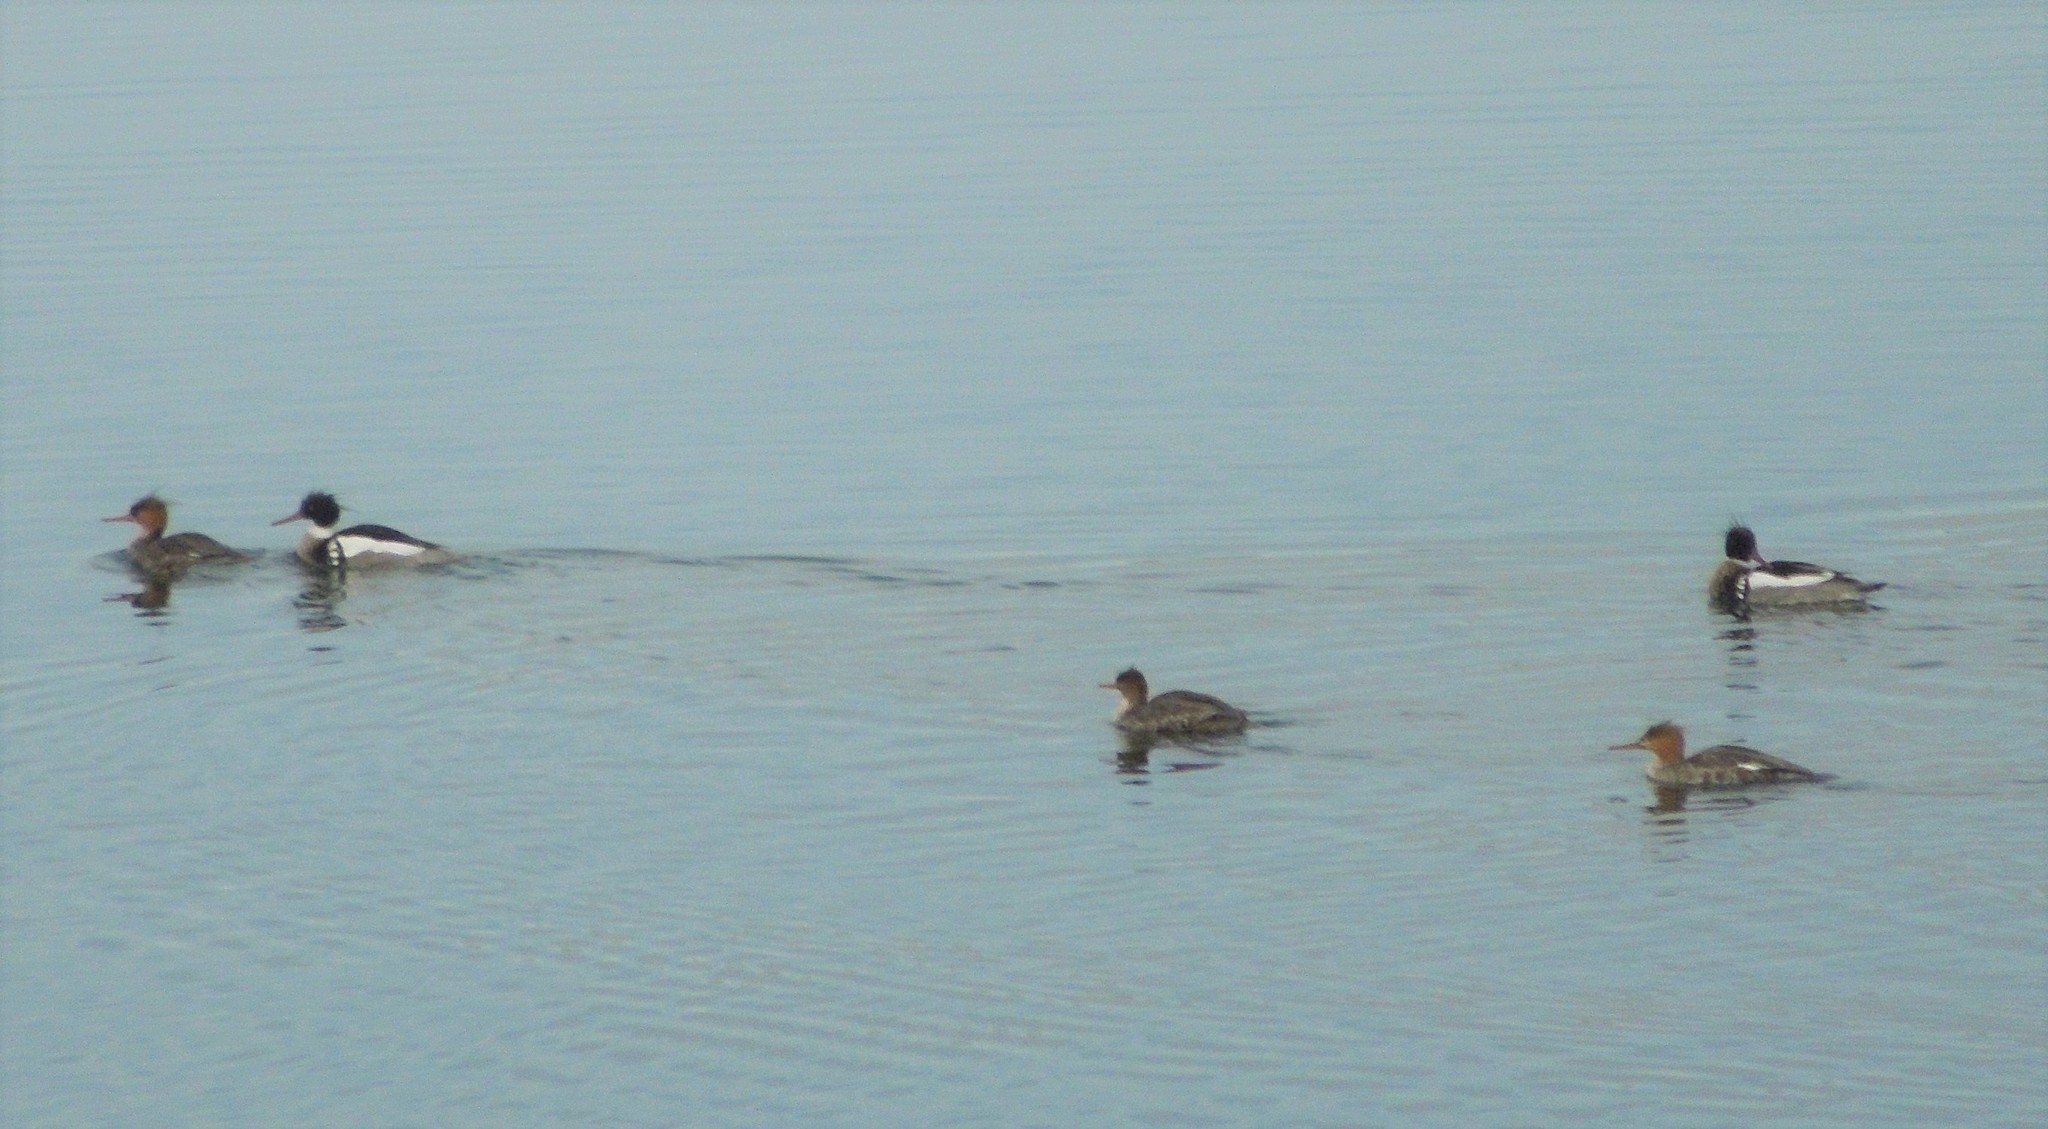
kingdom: Animalia
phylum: Chordata
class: Aves
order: Anseriformes
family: Anatidae
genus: Mergus
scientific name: Mergus serrator
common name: Red-breasted merganser
